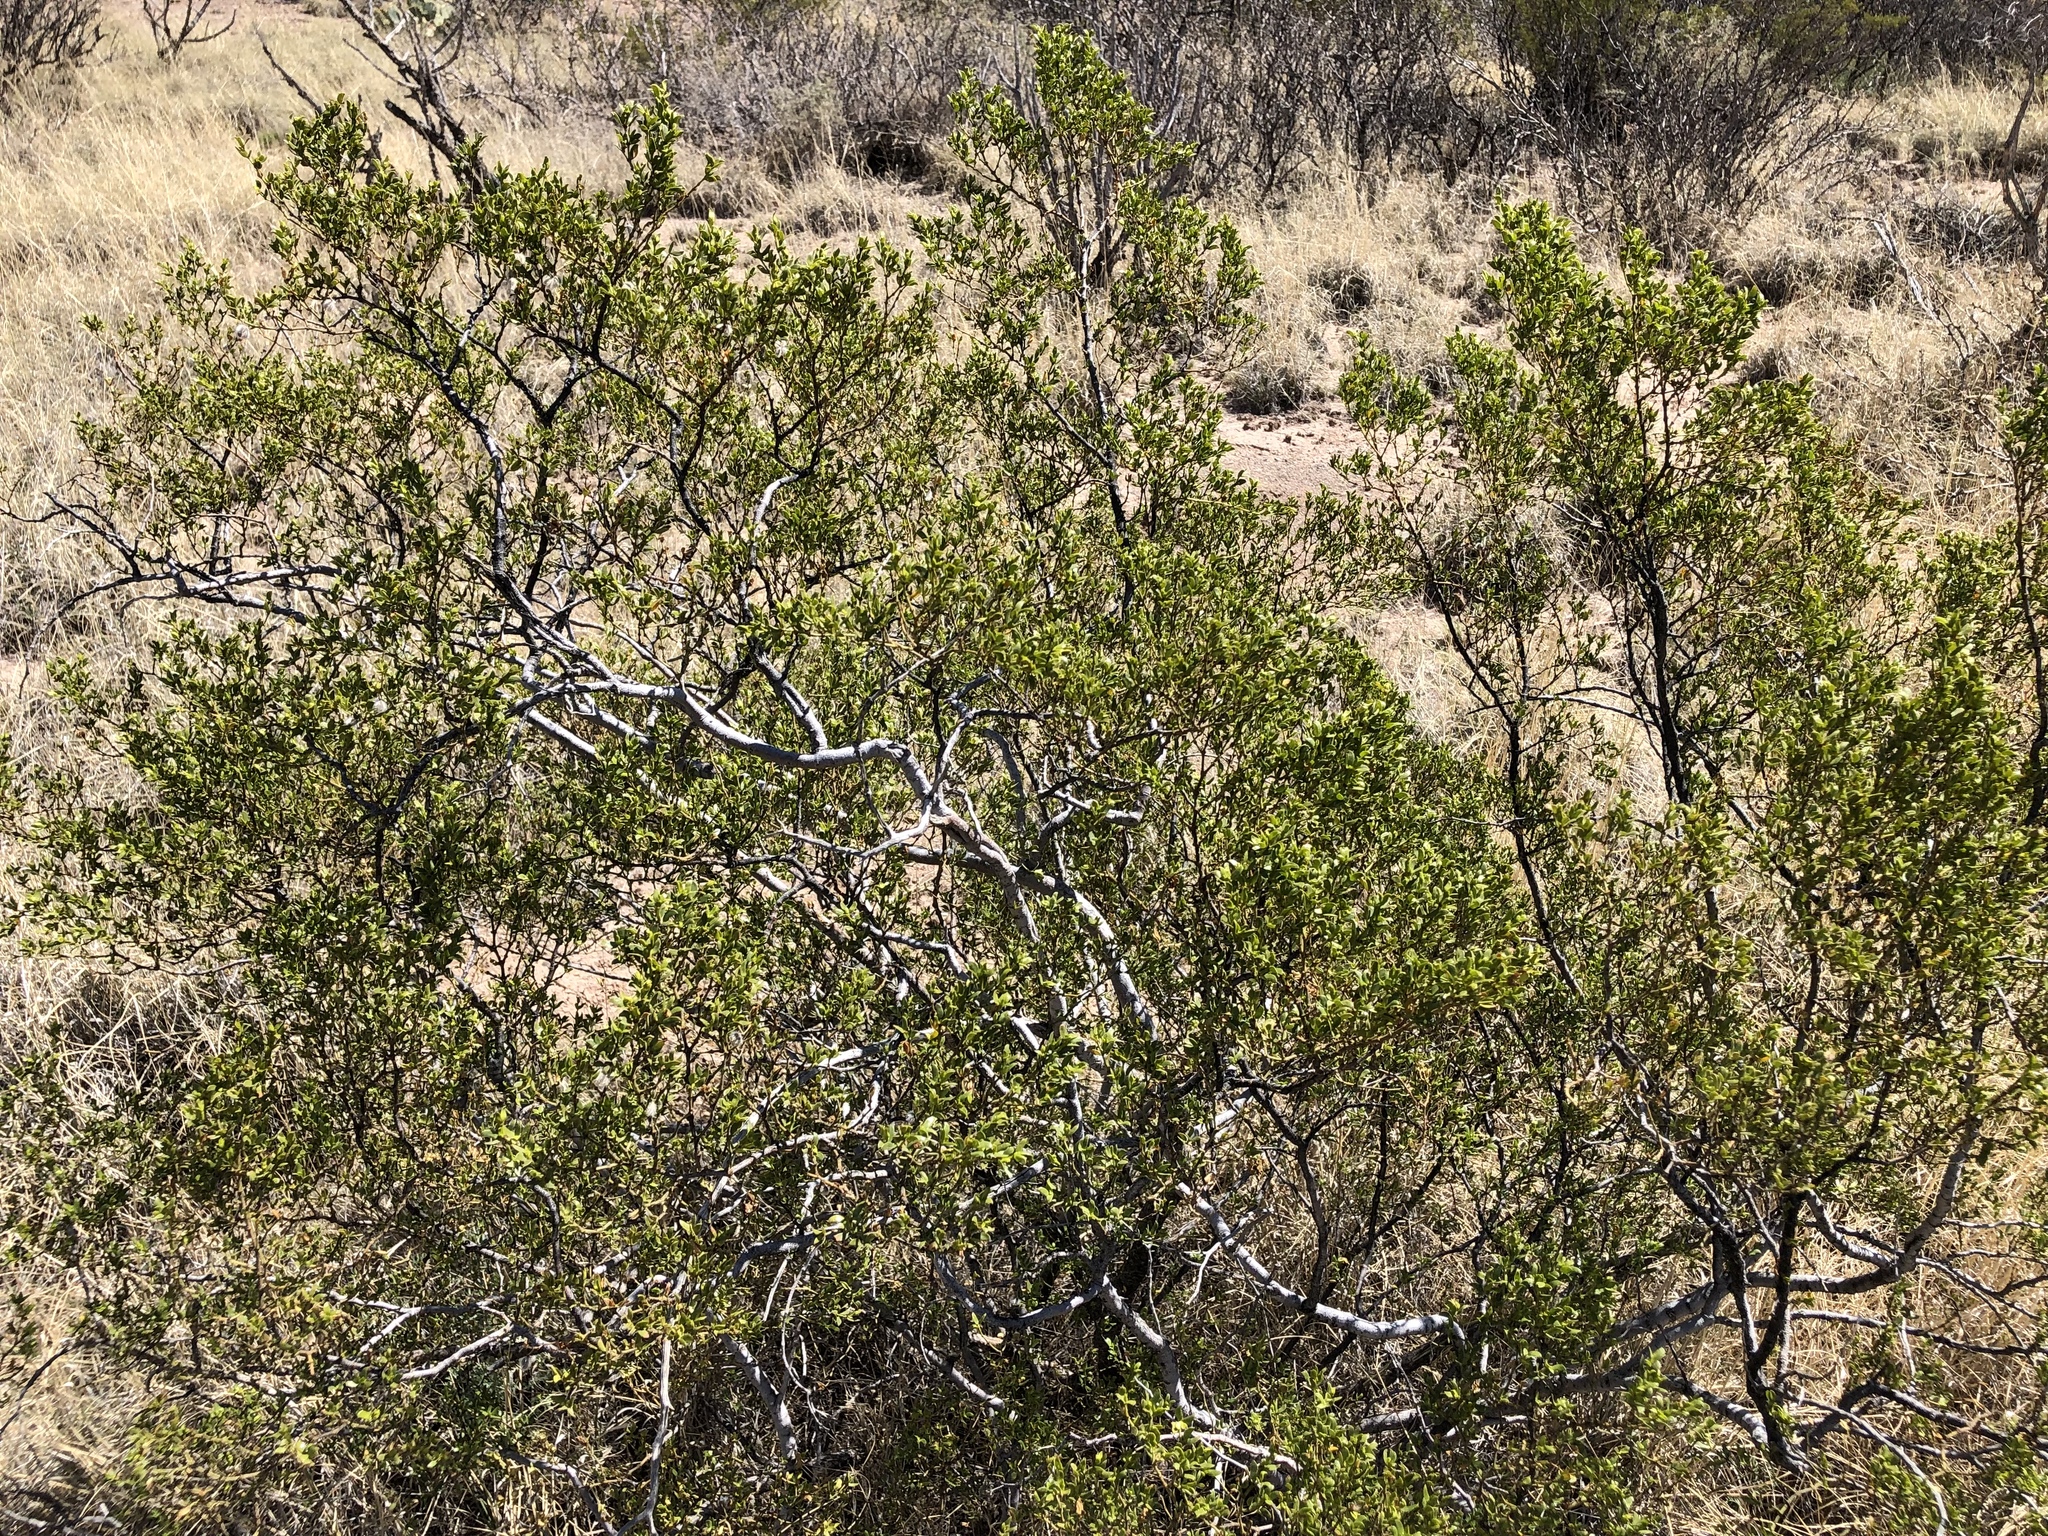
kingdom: Plantae
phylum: Tracheophyta
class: Magnoliopsida
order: Zygophyllales
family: Zygophyllaceae
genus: Larrea
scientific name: Larrea tridentata
